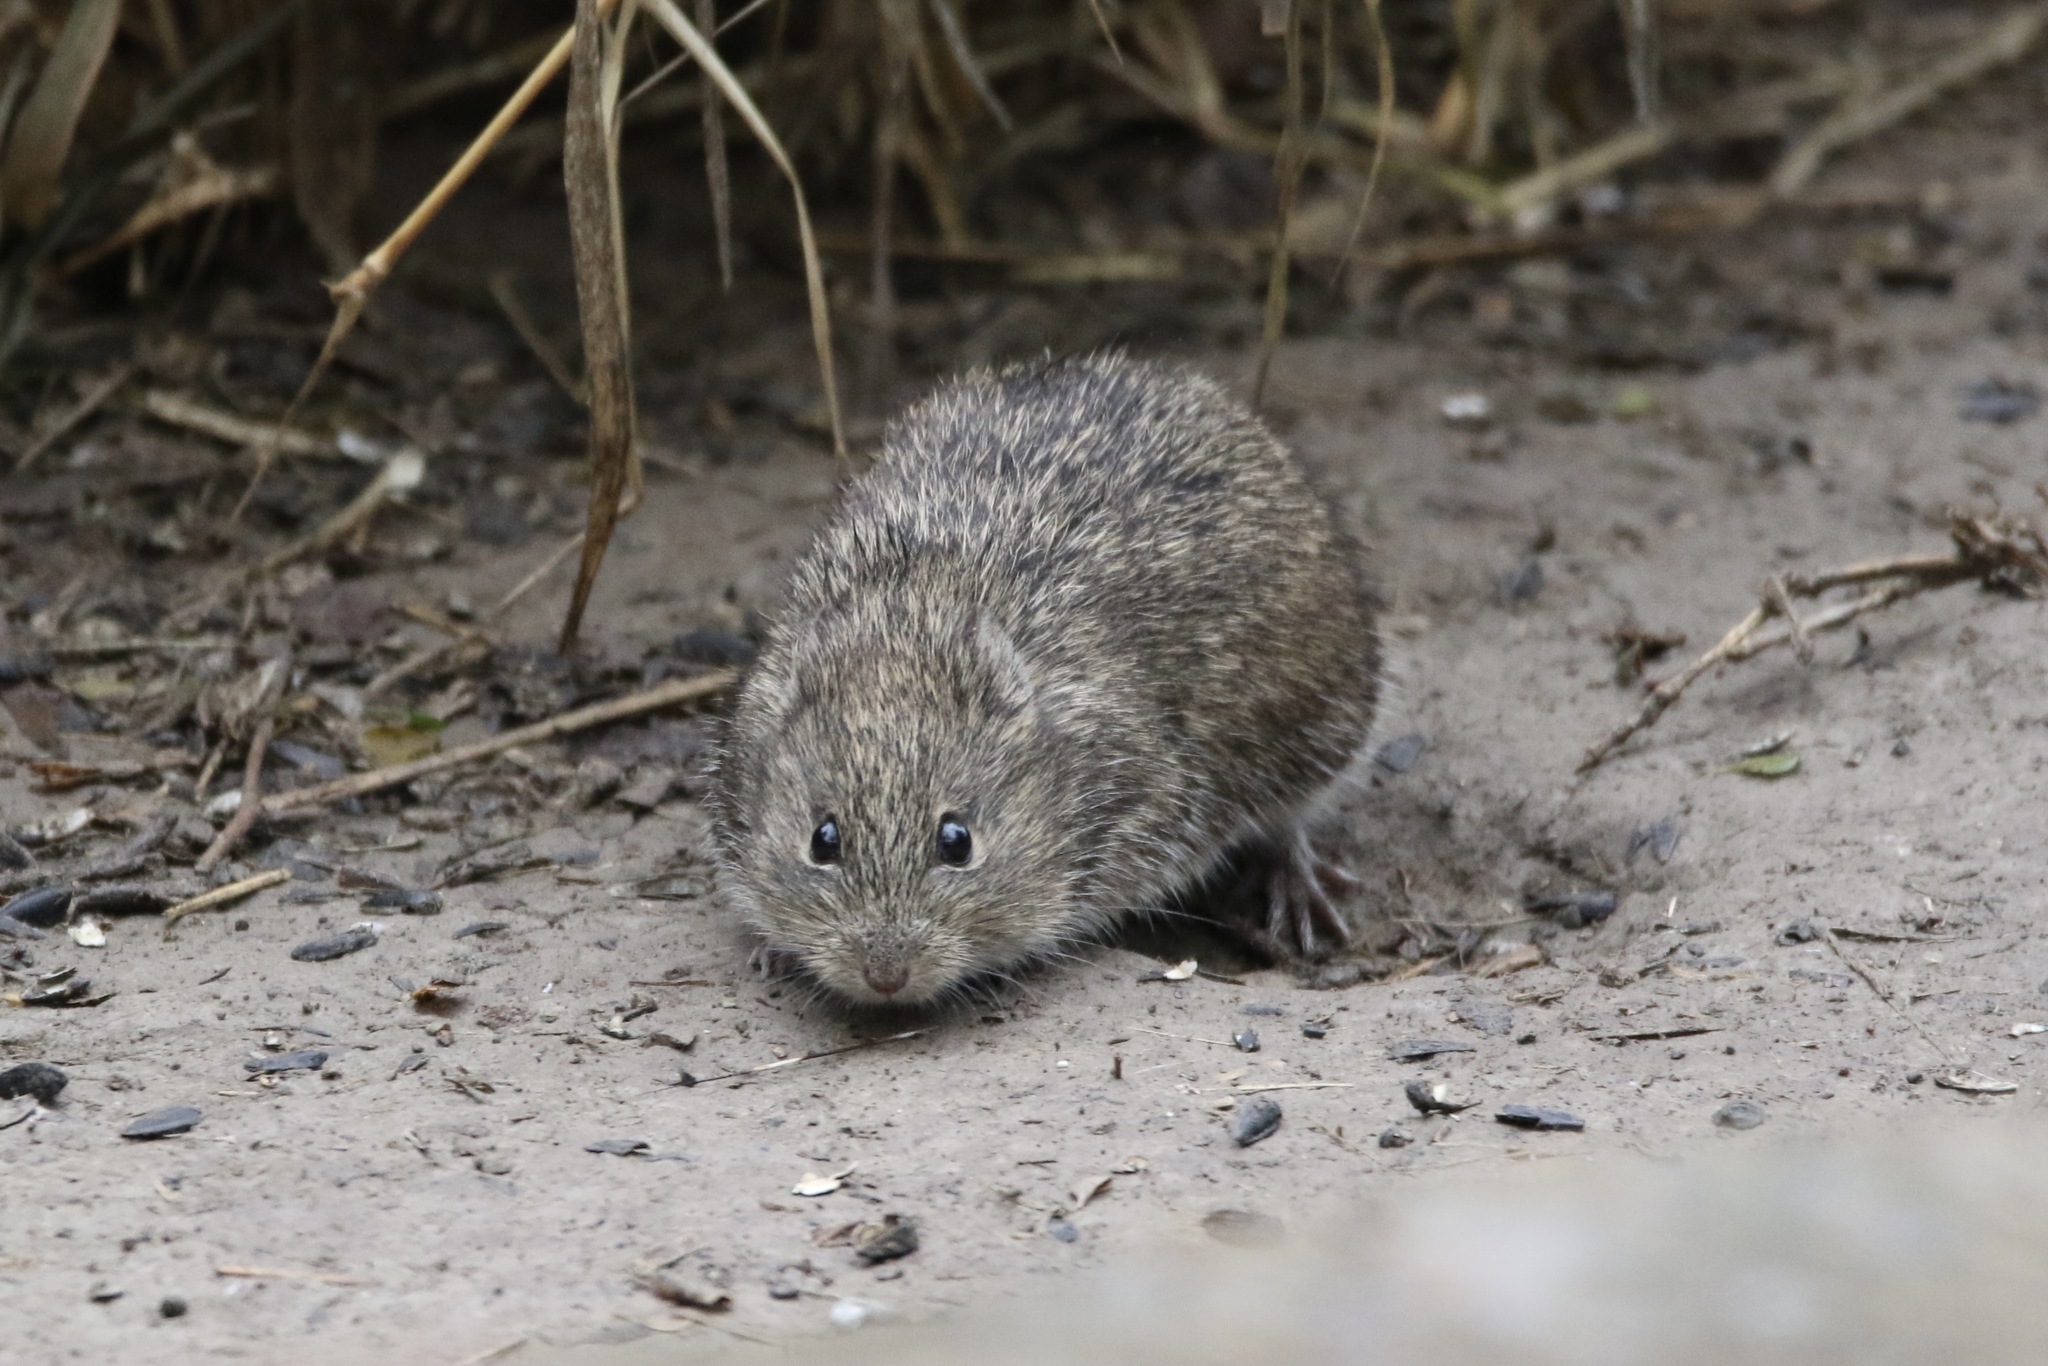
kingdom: Animalia
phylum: Chordata
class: Mammalia
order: Rodentia
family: Cricetidae
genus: Sigmodon
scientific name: Sigmodon hispidus
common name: Hispid cotton rat
